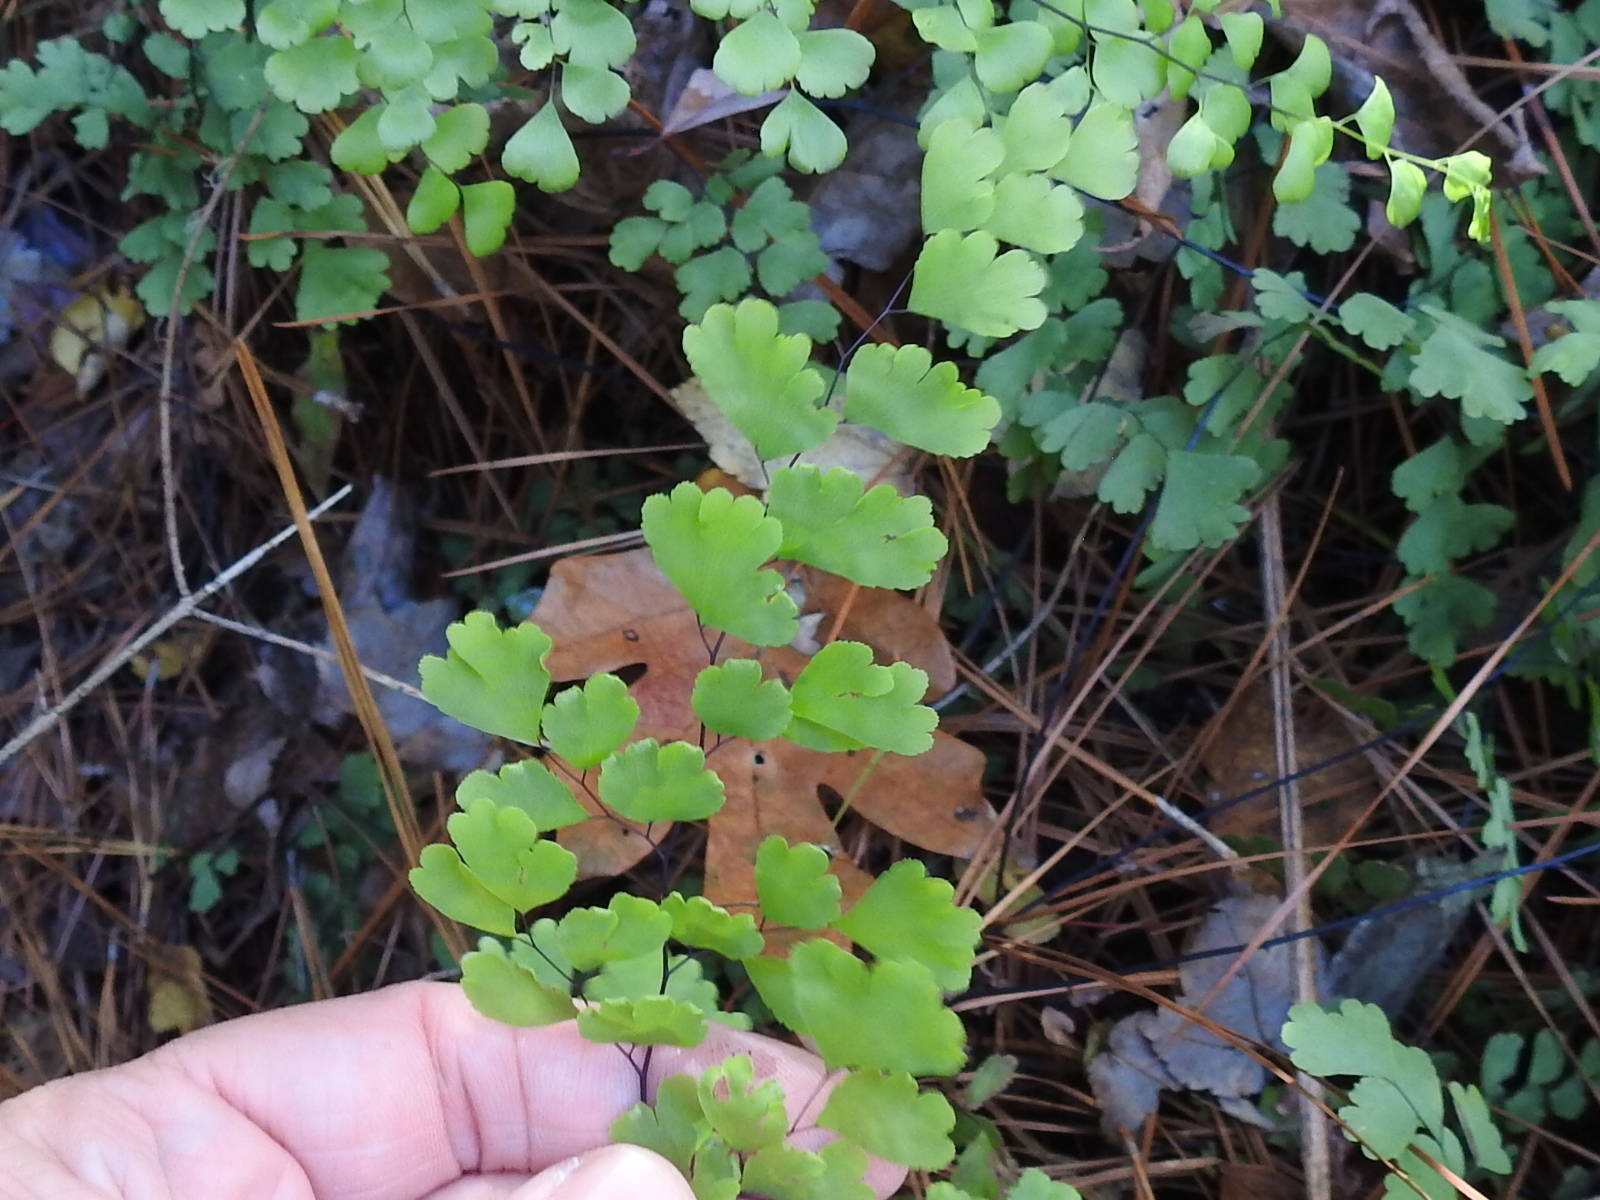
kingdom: Plantae
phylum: Tracheophyta
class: Polypodiopsida
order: Polypodiales
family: Pteridaceae
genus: Adiantum
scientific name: Adiantum capillus-veneris
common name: Maidenhair fern
